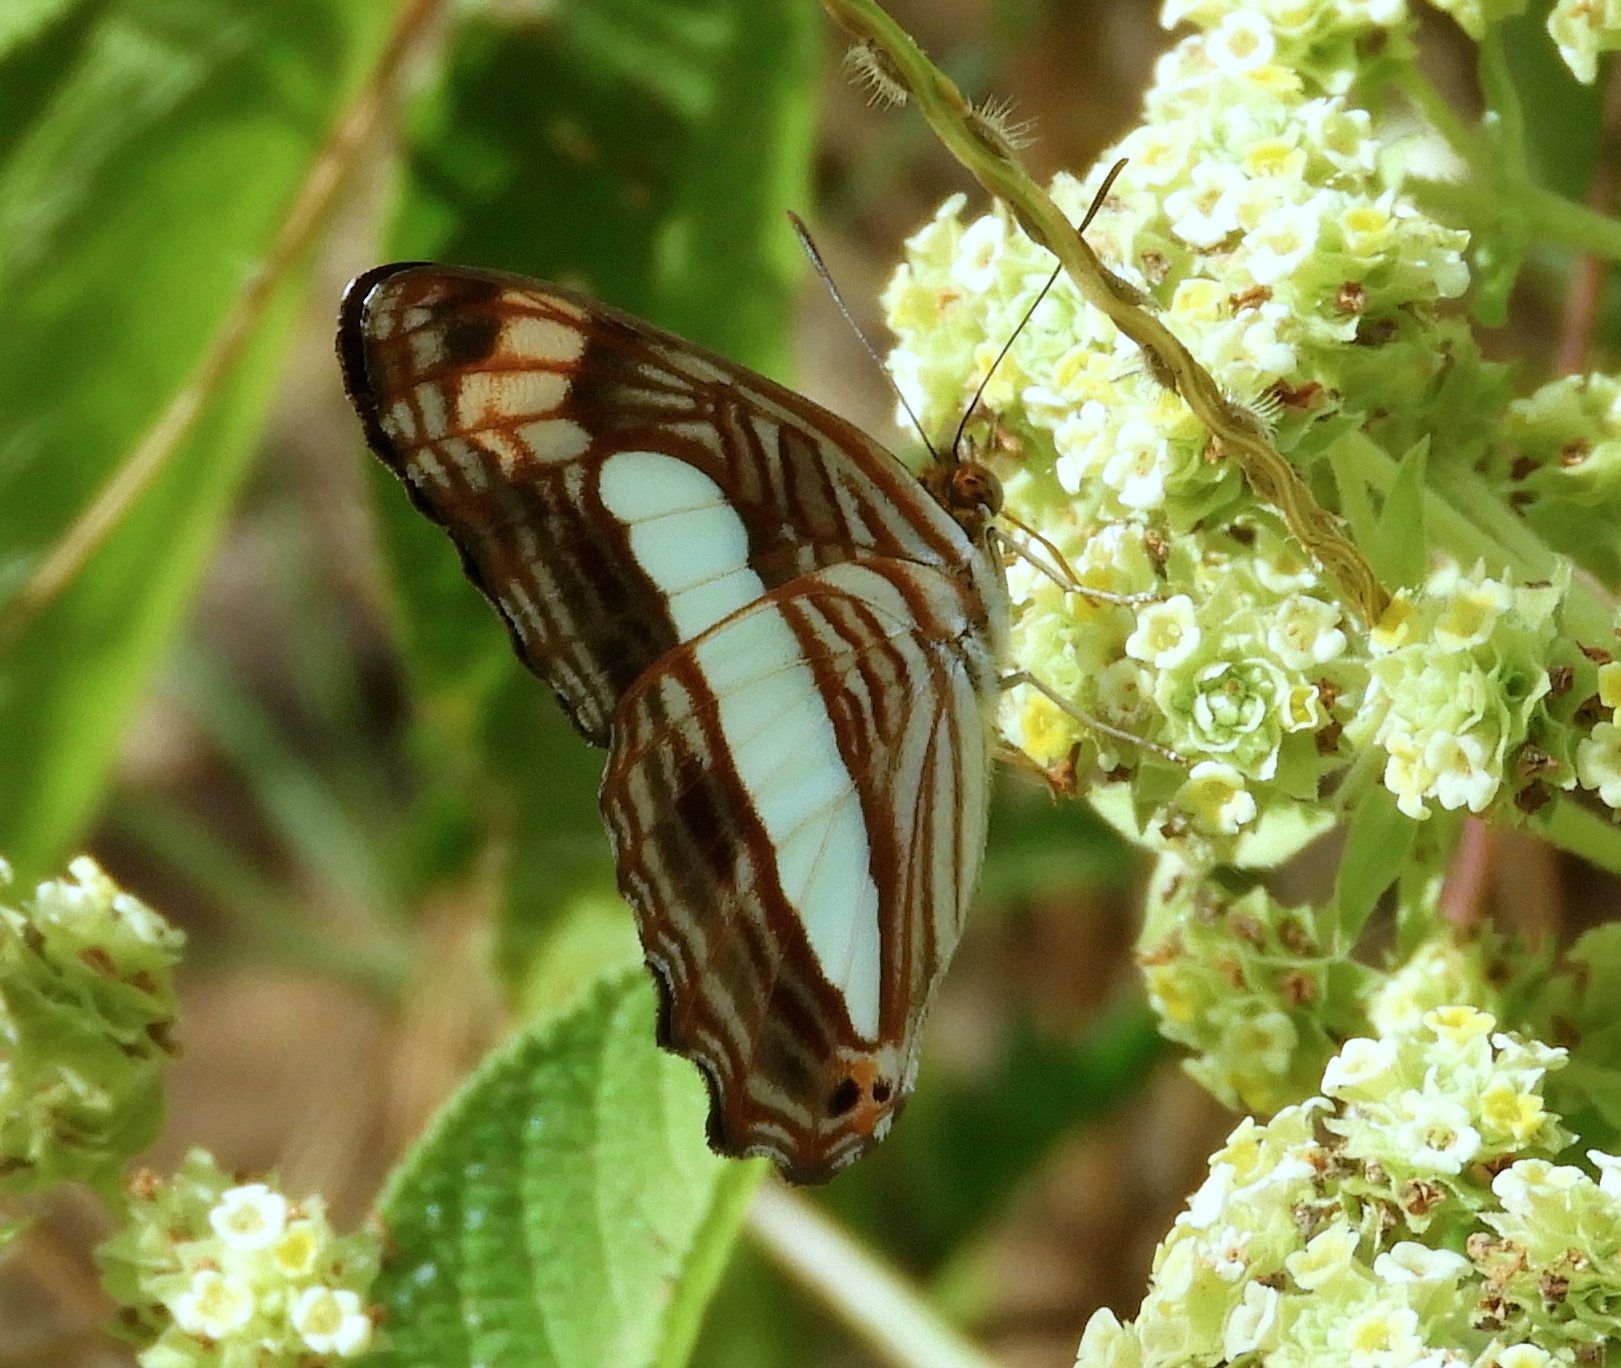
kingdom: Animalia
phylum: Arthropoda
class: Insecta
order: Lepidoptera
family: Nymphalidae
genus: Limenitis
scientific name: Limenitis iphiclus
